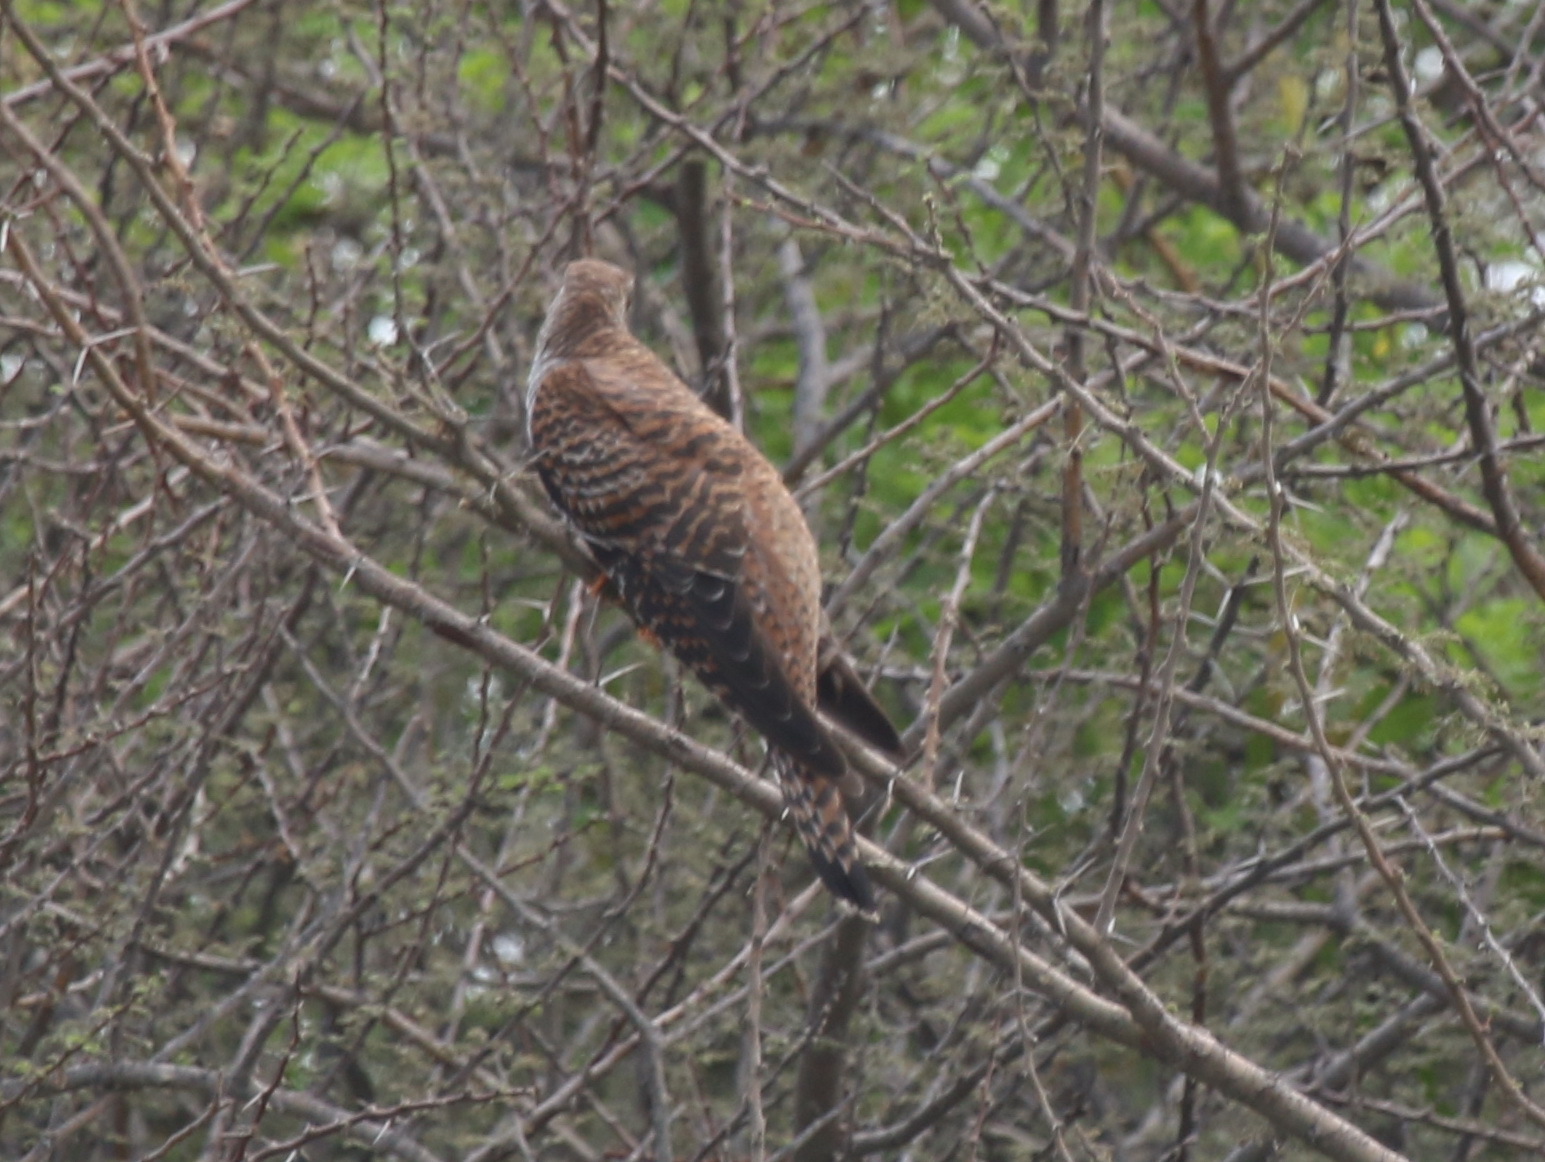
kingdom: Animalia
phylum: Chordata
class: Aves
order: Cuculiformes
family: Cuculidae
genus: Cuculus
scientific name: Cuculus canorus
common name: Common cuckoo
